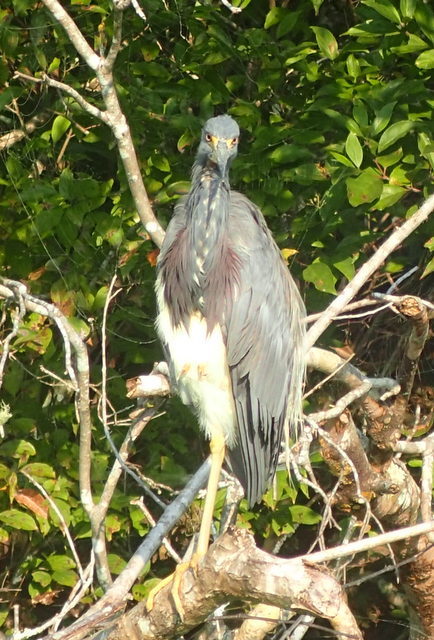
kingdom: Animalia
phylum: Chordata
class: Aves
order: Pelecaniformes
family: Ardeidae
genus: Egretta
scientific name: Egretta tricolor
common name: Tricolored heron
